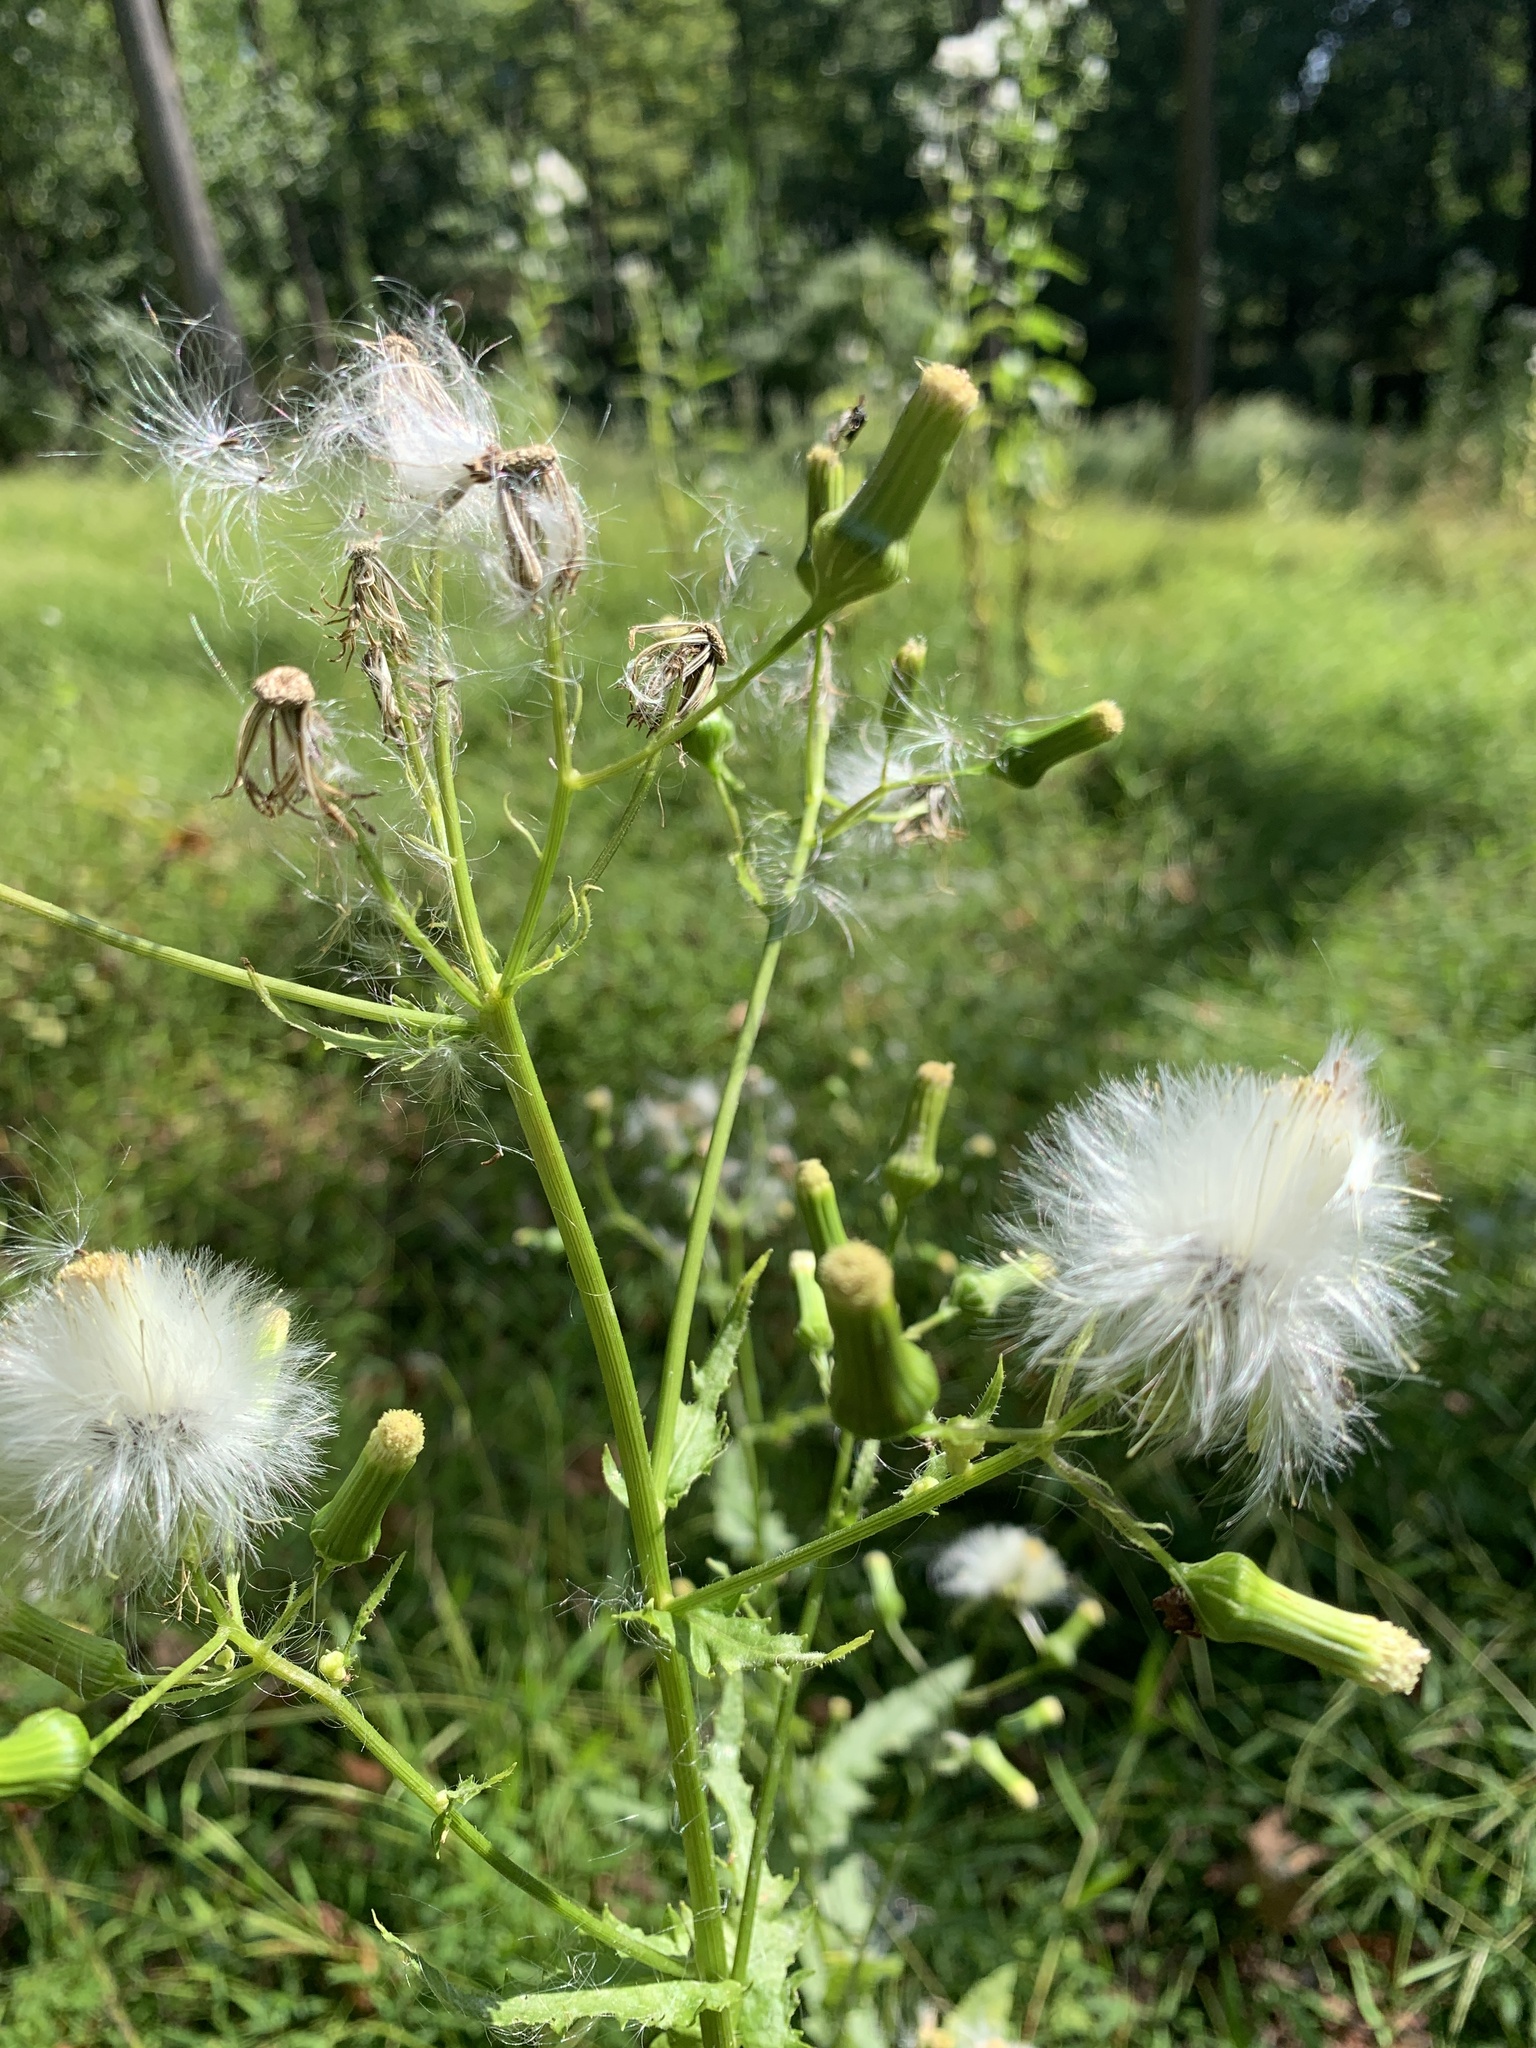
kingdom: Plantae
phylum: Tracheophyta
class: Magnoliopsida
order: Asterales
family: Asteraceae
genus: Erechtites
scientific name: Erechtites hieraciifolius
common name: American burnweed
